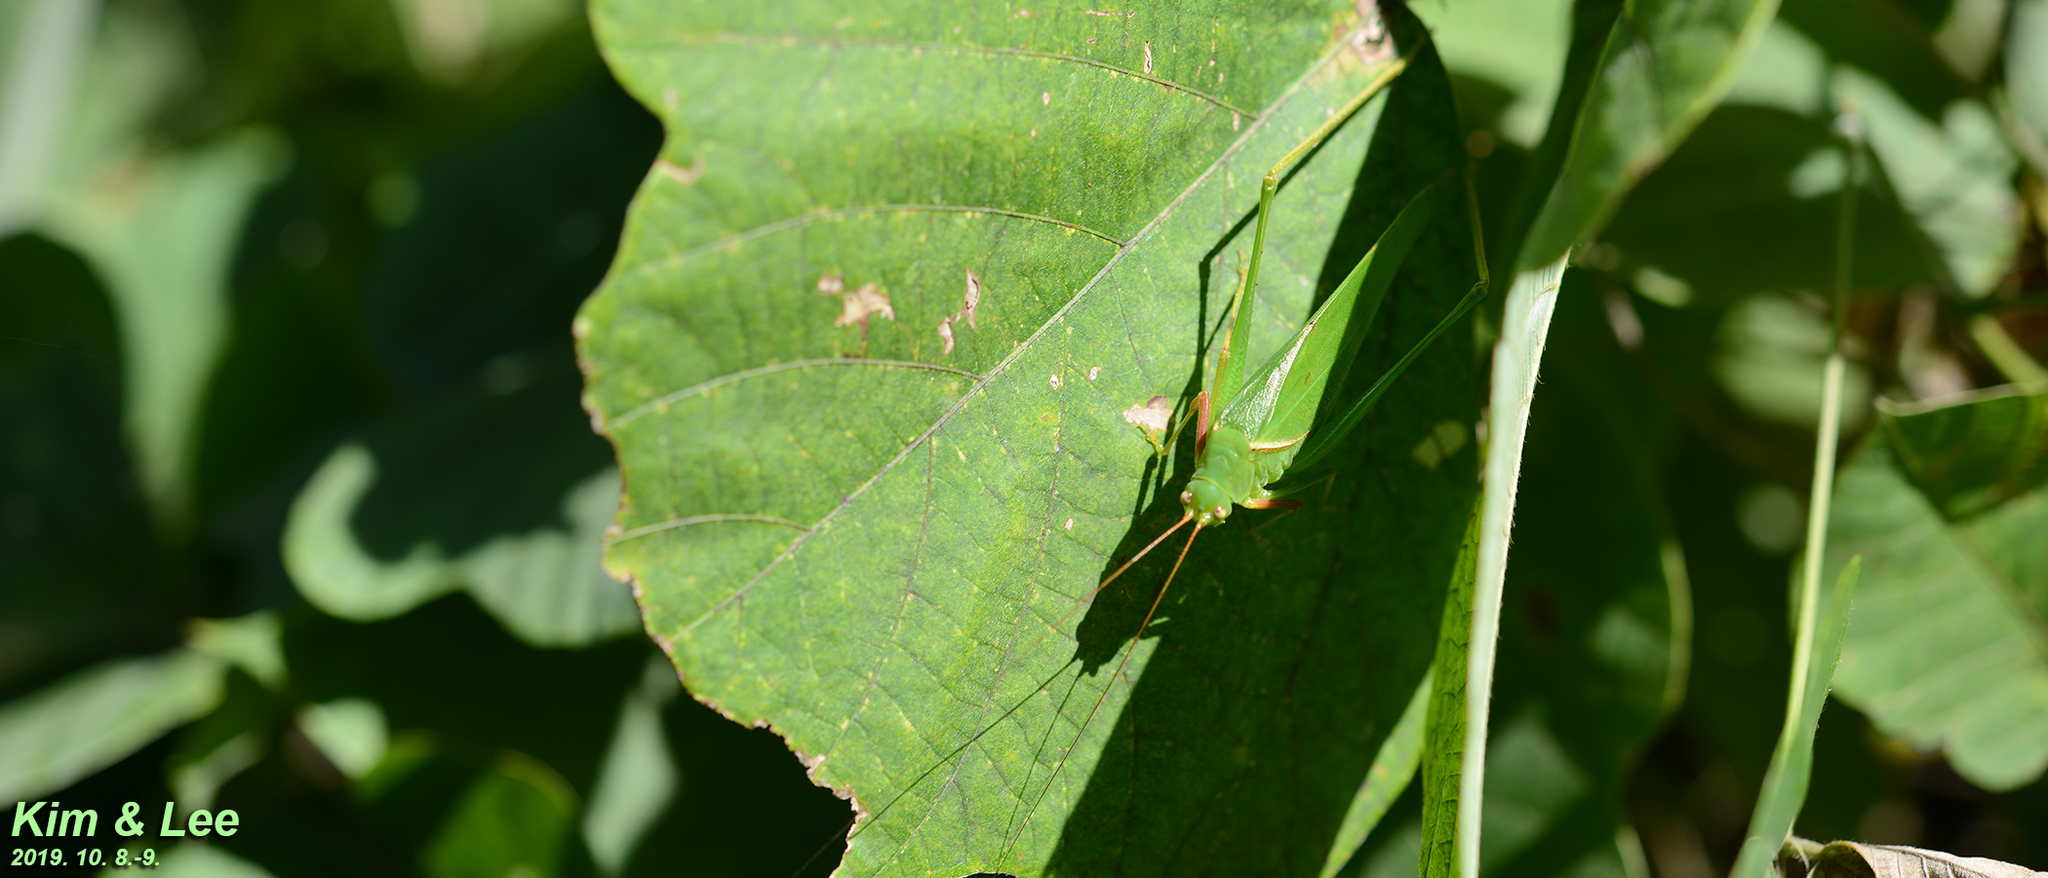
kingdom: Animalia
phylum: Arthropoda
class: Insecta
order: Orthoptera
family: Tettigoniidae
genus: Sinochlora
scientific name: Sinochlora longifissa
